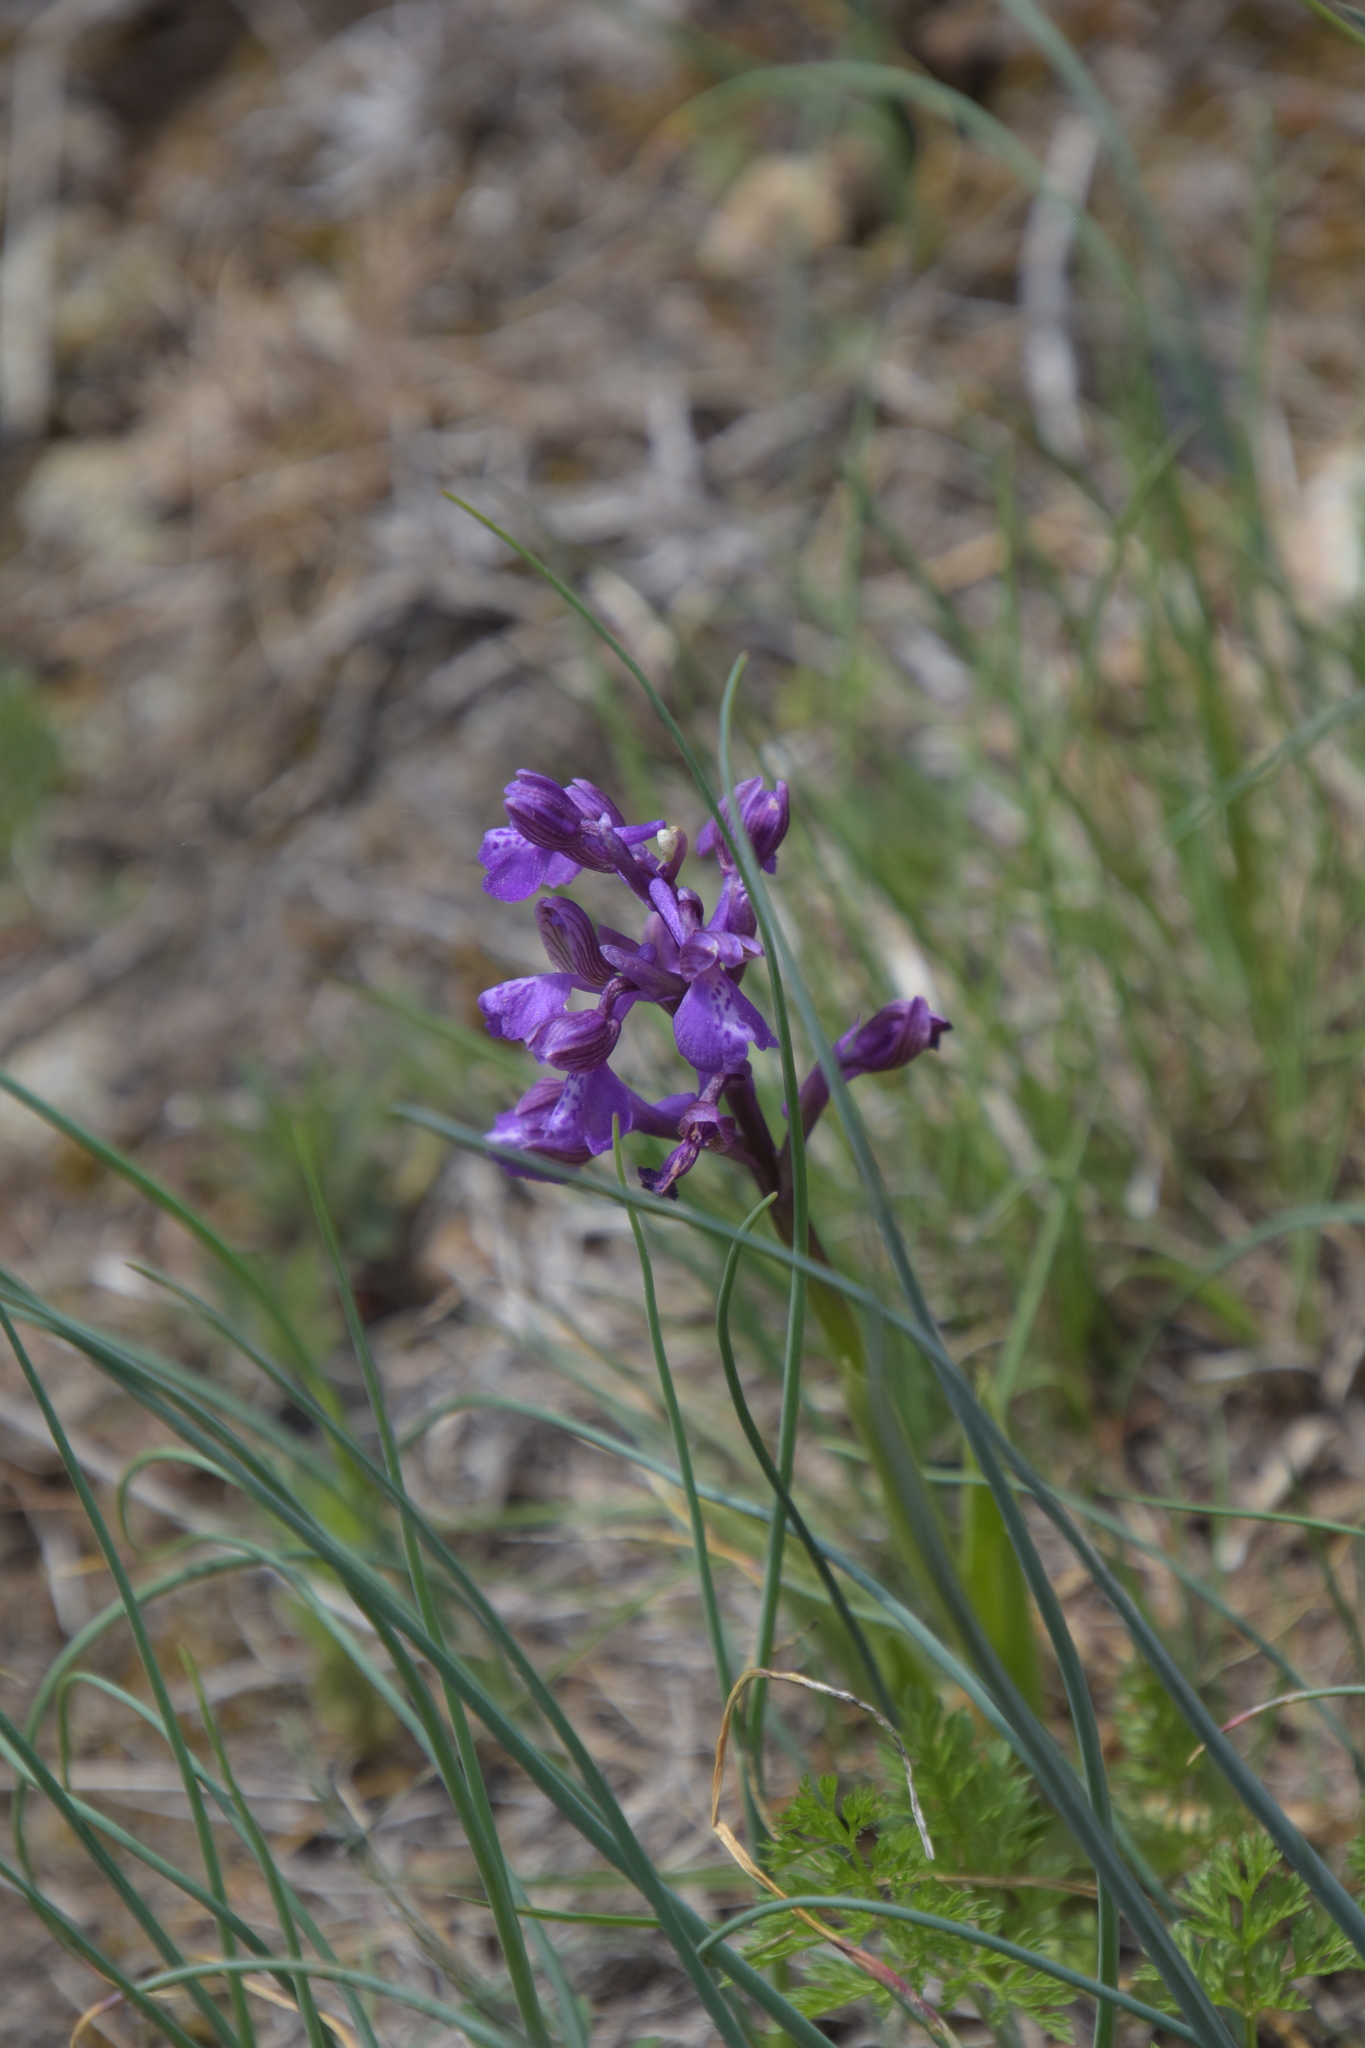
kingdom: Plantae
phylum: Tracheophyta
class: Liliopsida
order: Asparagales
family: Orchidaceae
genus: Anacamptis
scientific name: Anacamptis morio
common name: Green-winged orchid
